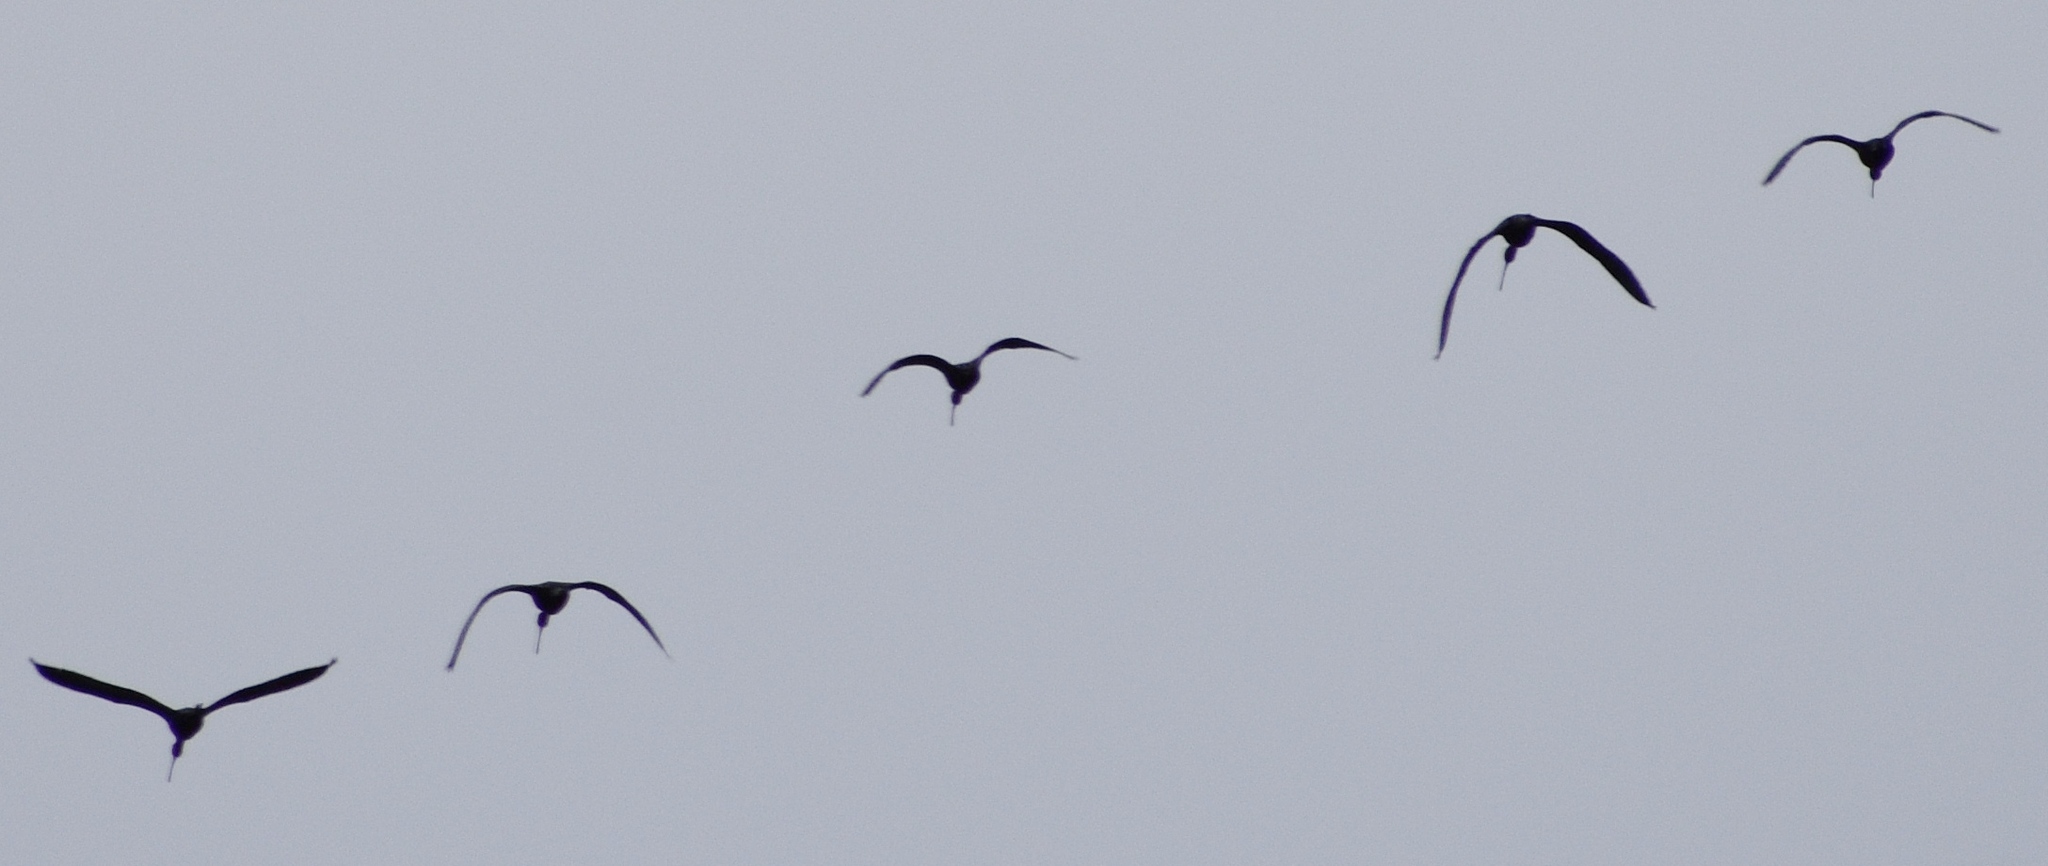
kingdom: Animalia
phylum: Chordata
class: Aves
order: Pelecaniformes
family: Threskiornithidae
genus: Plegadis
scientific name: Plegadis chihi
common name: White-faced ibis
